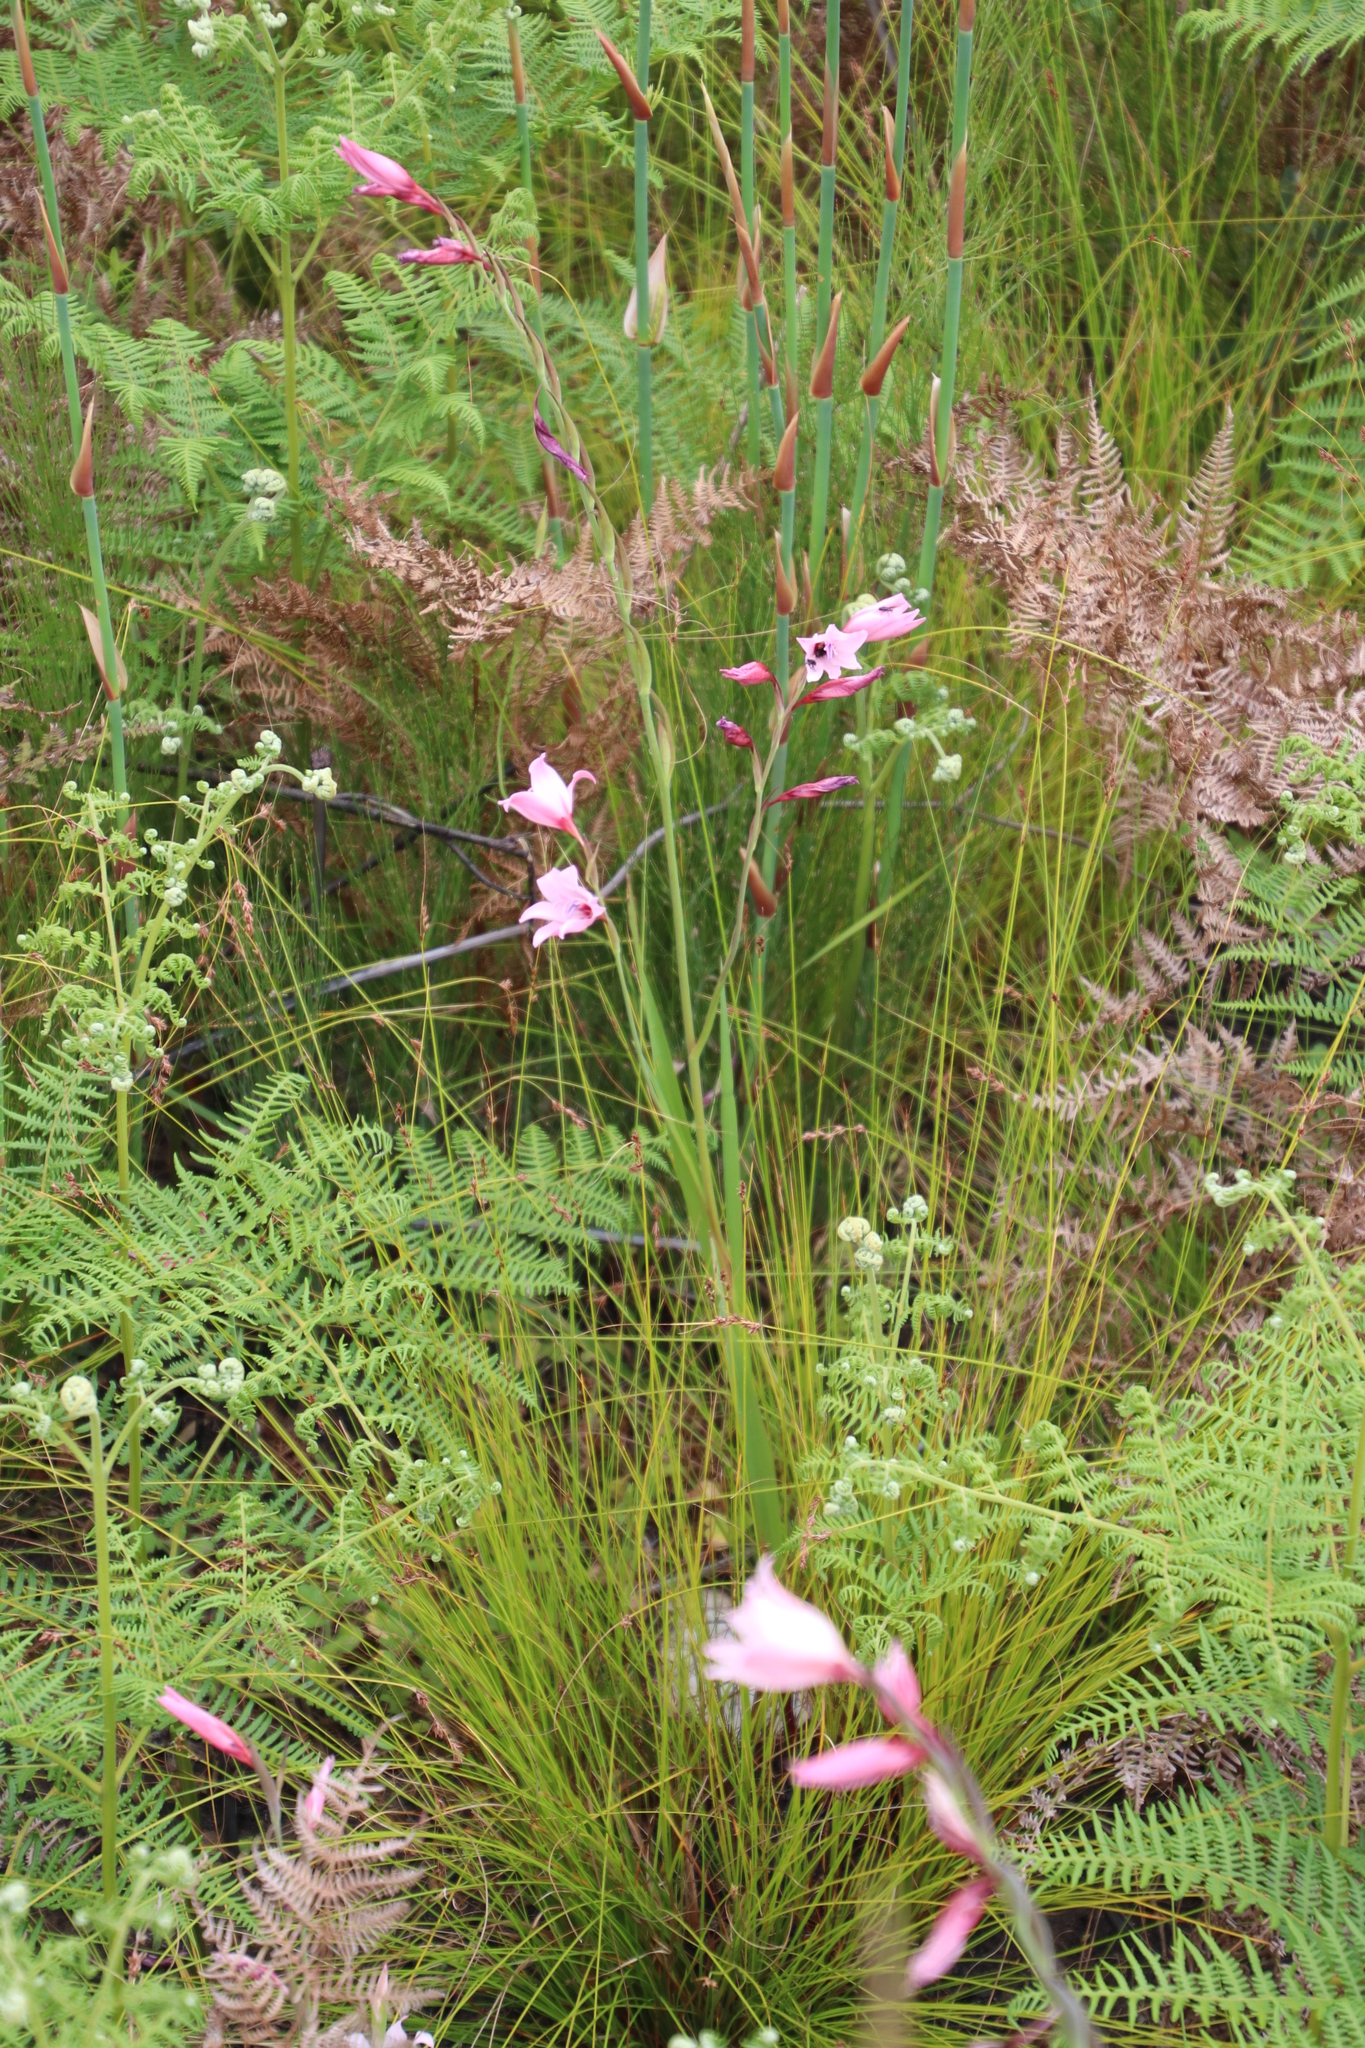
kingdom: Plantae
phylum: Tracheophyta
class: Liliopsida
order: Asparagales
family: Iridaceae
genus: Gladiolus
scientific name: Gladiolus carneus
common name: Painted-lady
